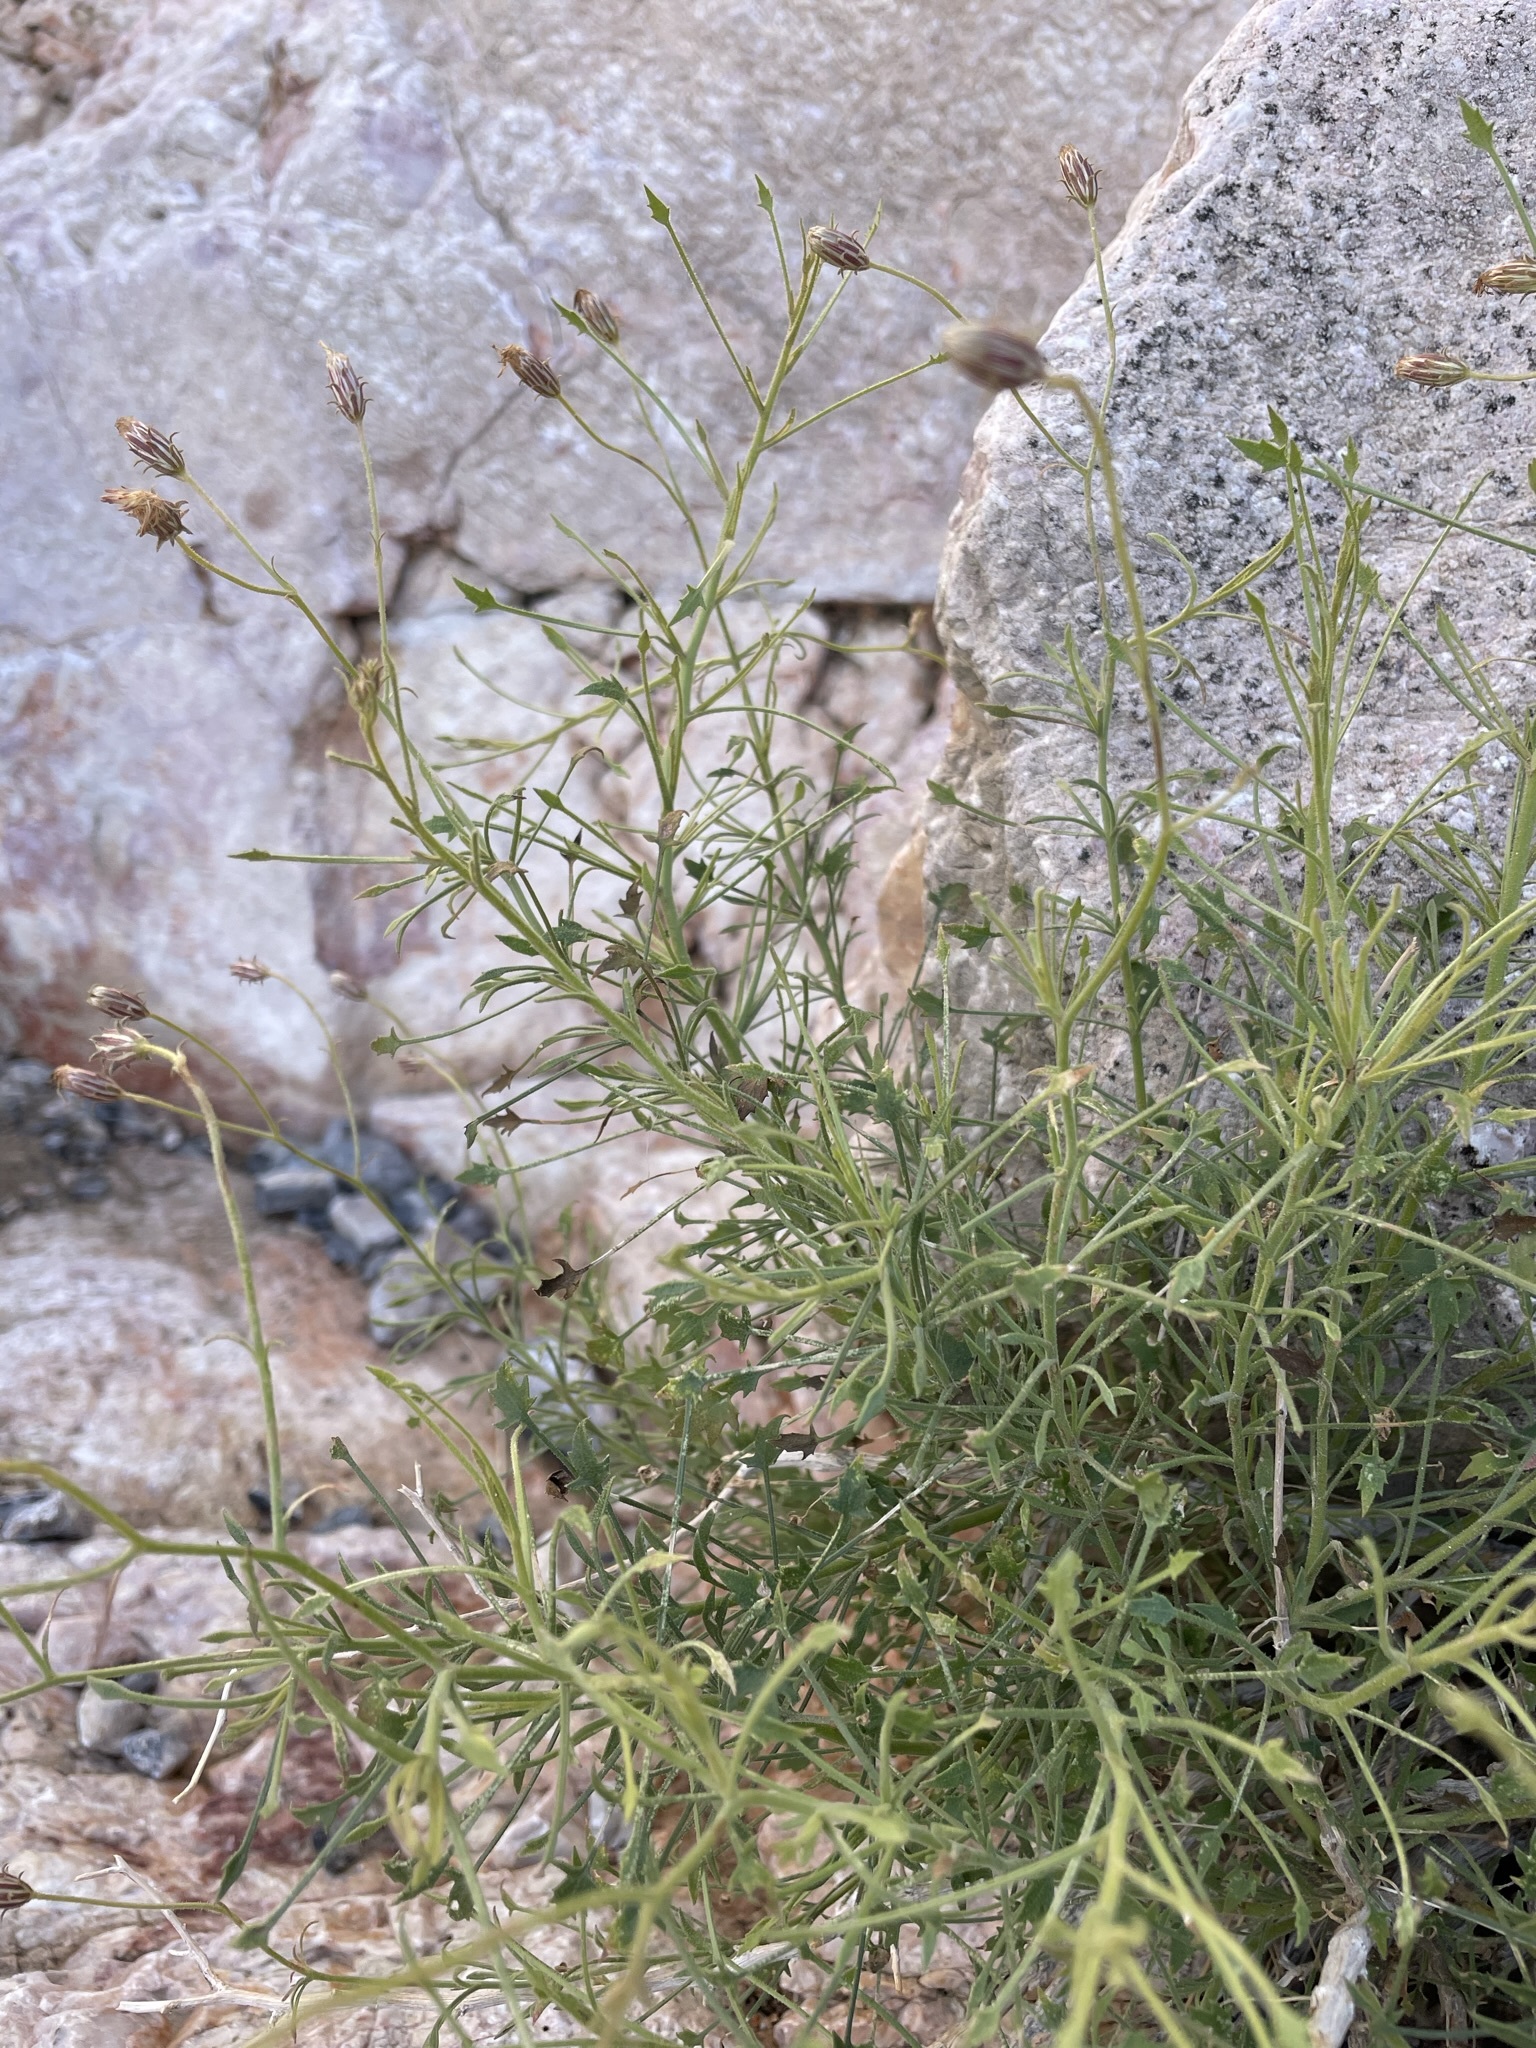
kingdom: Plantae
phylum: Tracheophyta
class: Magnoliopsida
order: Asterales
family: Asteraceae
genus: Pleurocoronis
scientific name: Pleurocoronis pluriseta
